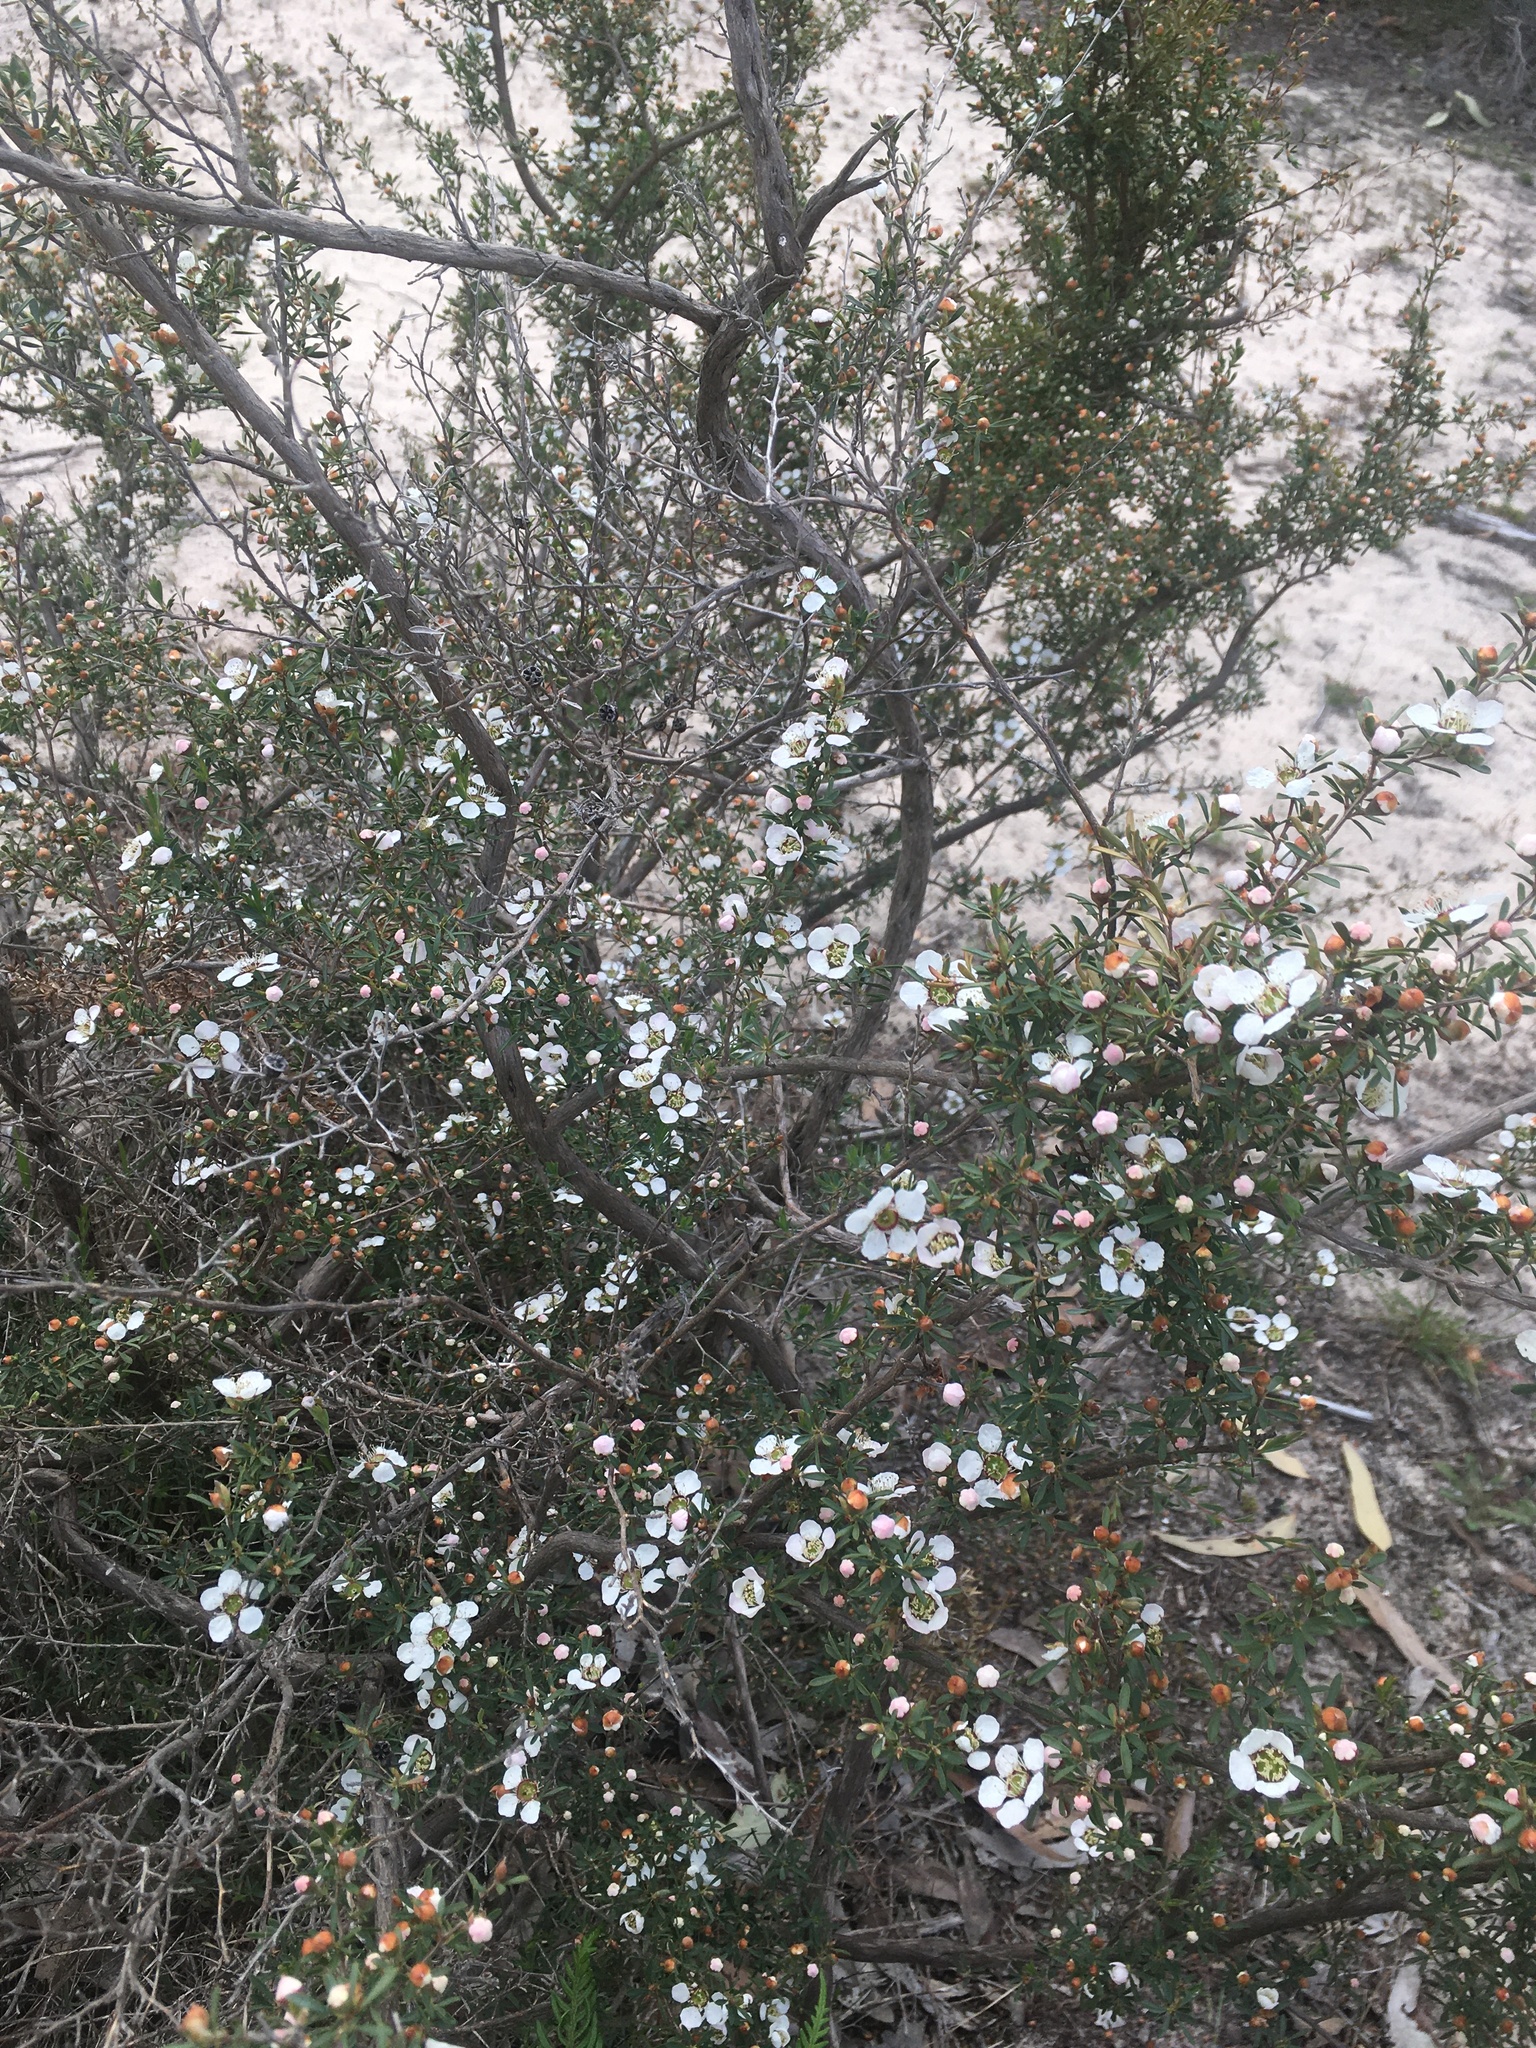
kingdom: Plantae
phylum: Tracheophyta
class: Magnoliopsida
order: Myrtales
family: Myrtaceae
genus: Leptospermum
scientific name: Leptospermum myrsinoides
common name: Heath teatree
